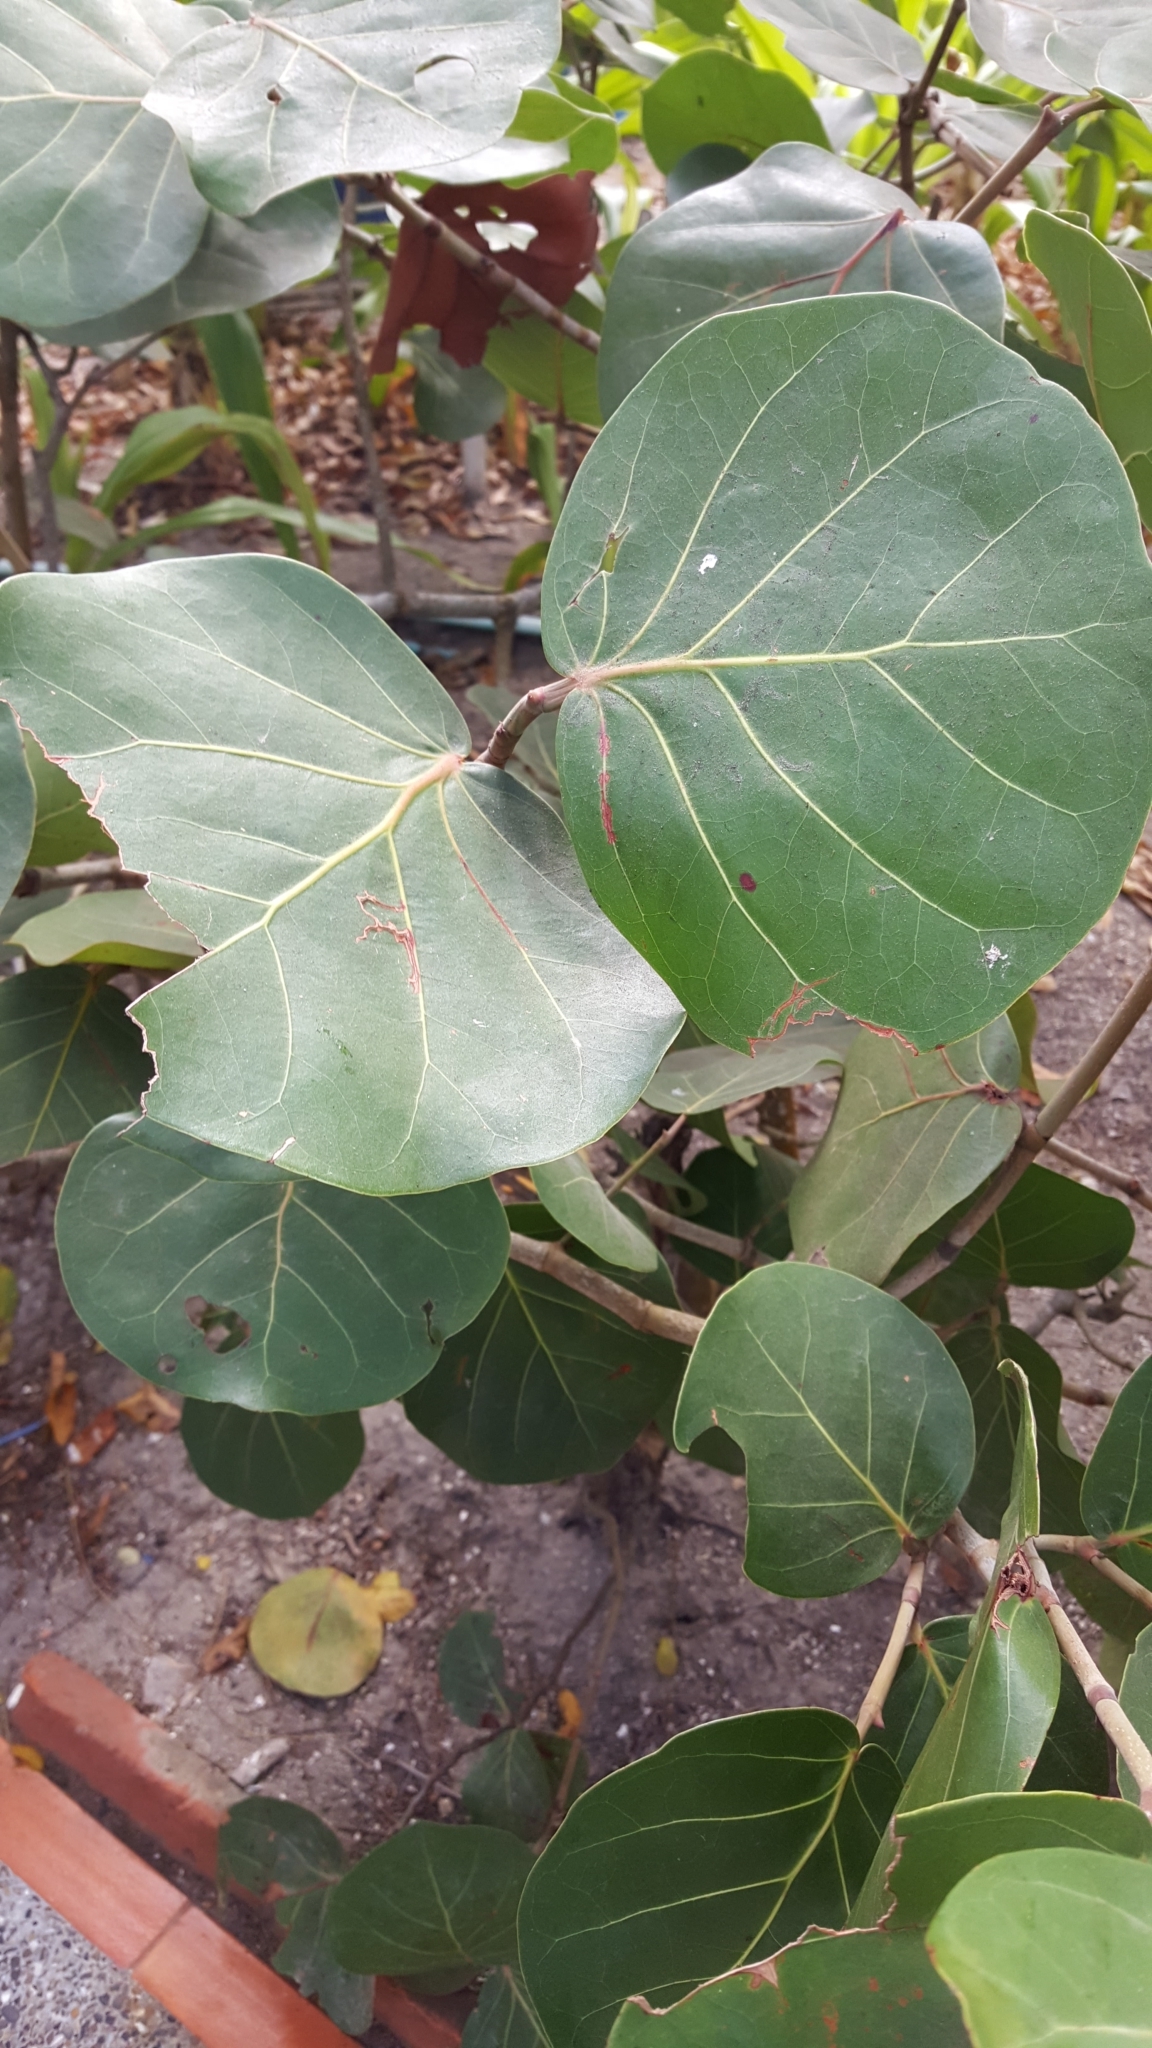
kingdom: Plantae
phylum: Tracheophyta
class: Magnoliopsida
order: Caryophyllales
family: Polygonaceae
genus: Coccoloba
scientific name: Coccoloba uvifera
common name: Seagrape
